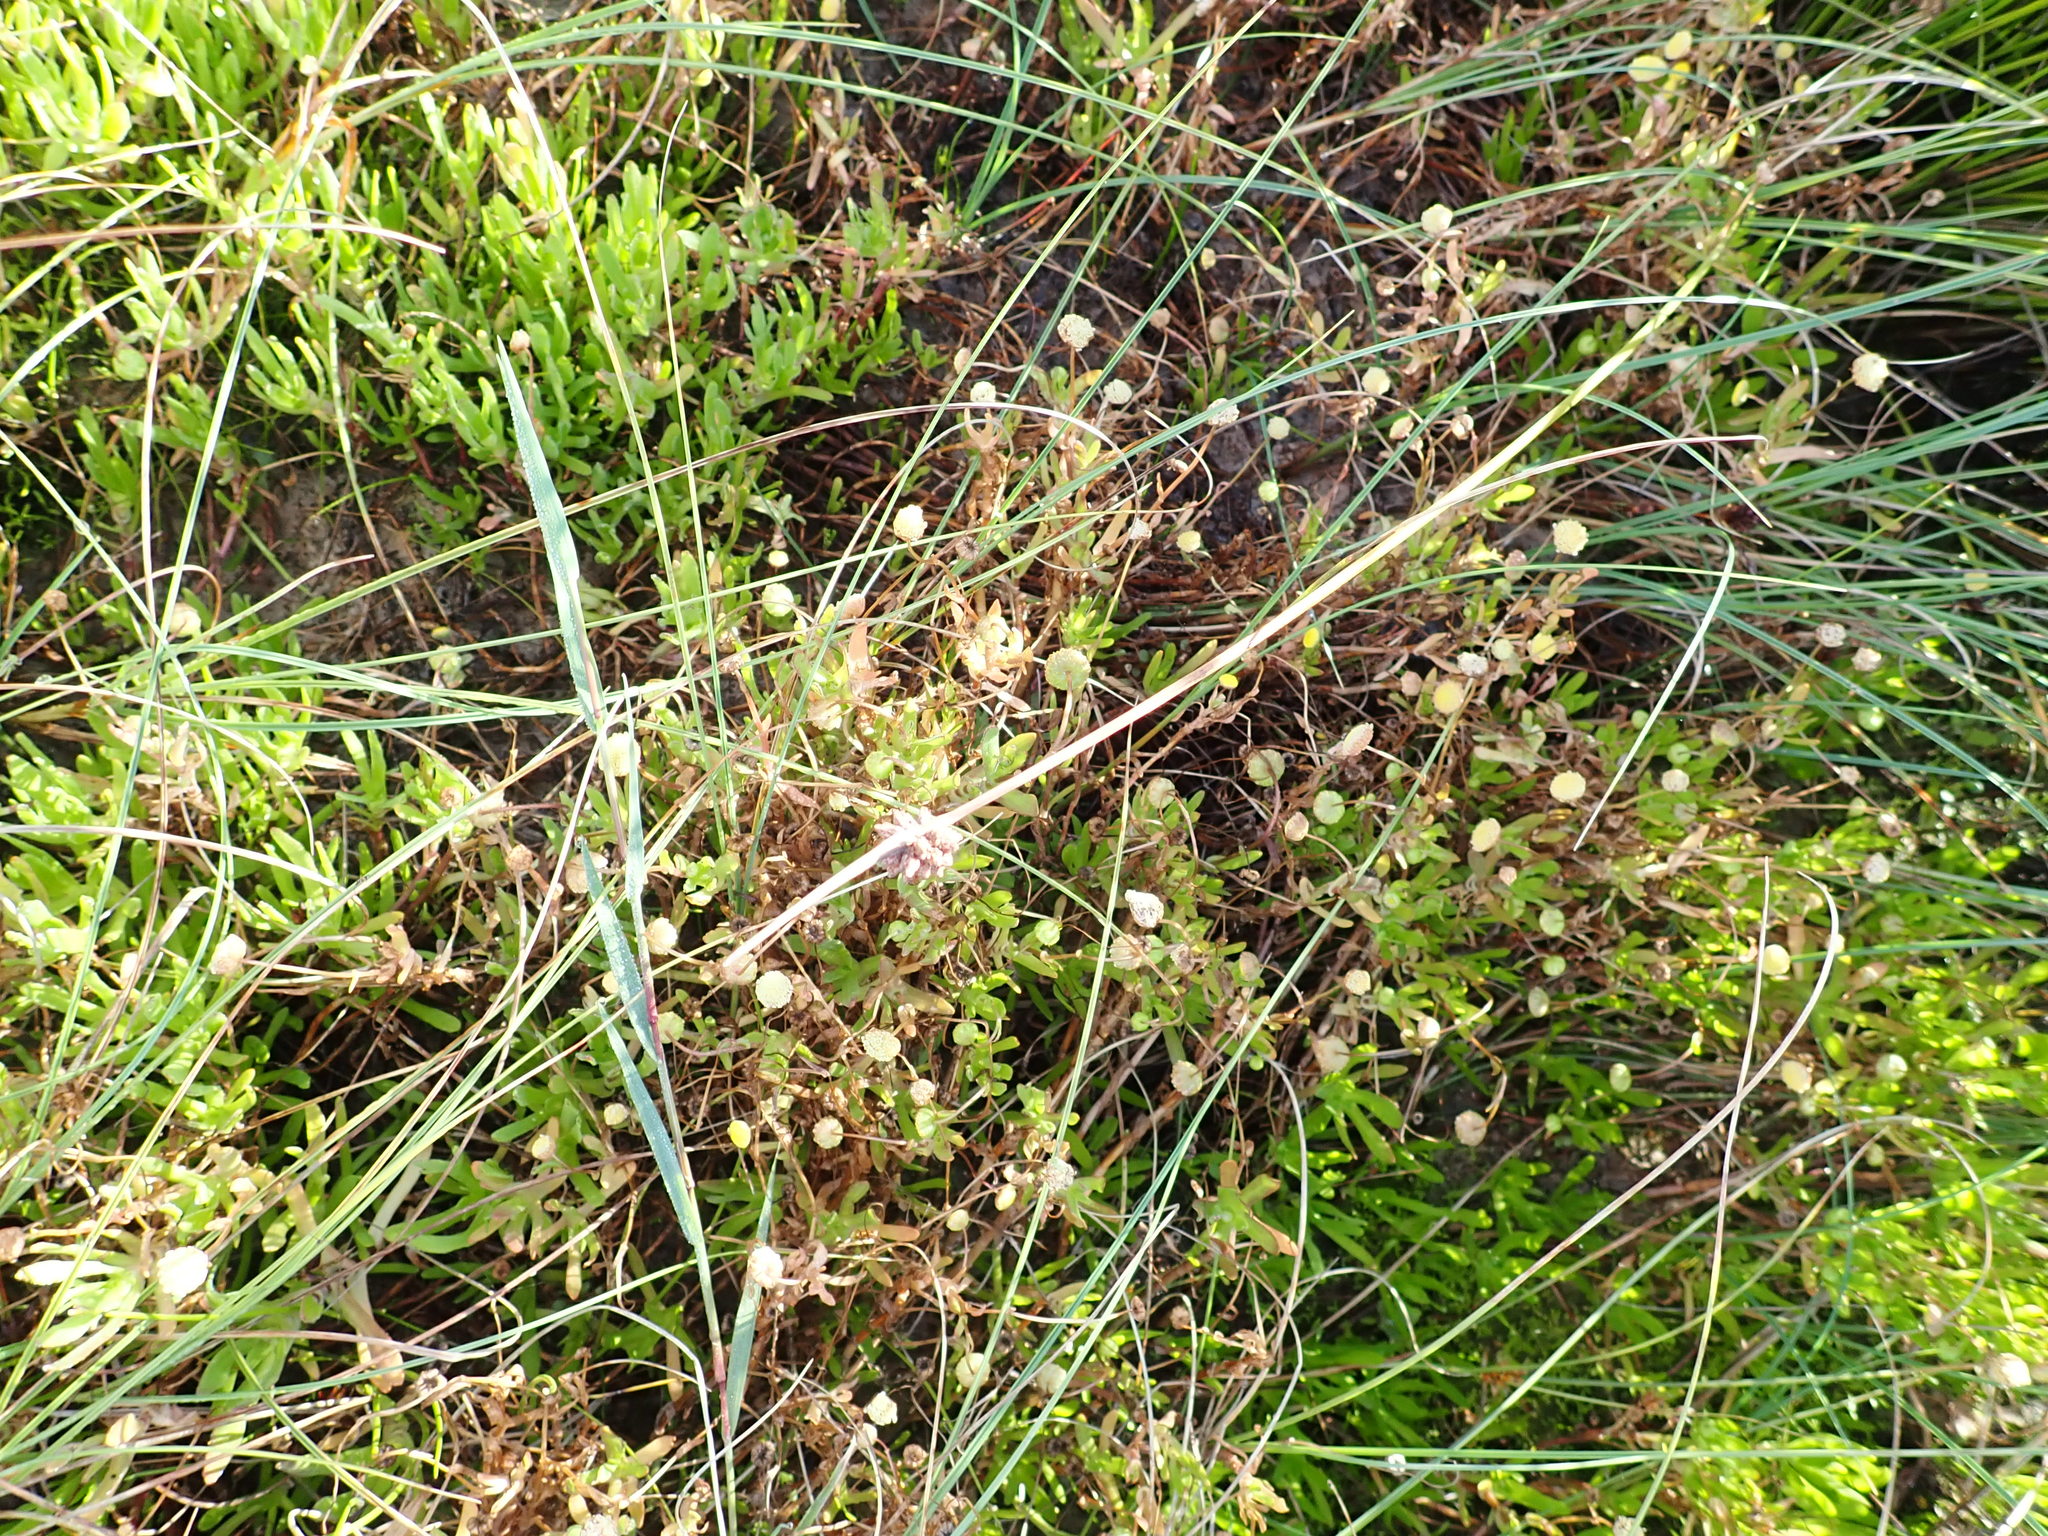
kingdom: Plantae
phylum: Tracheophyta
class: Magnoliopsida
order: Asterales
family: Asteraceae
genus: Cotula
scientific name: Cotula coronopifolia
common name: Buttonweed
